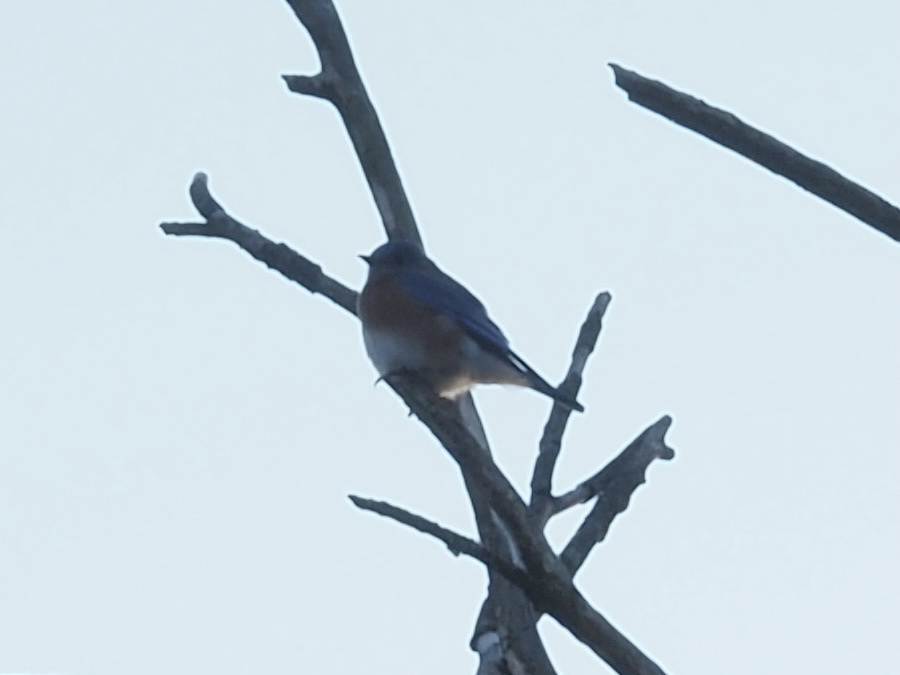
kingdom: Animalia
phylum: Chordata
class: Aves
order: Passeriformes
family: Turdidae
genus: Sialia
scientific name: Sialia sialis
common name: Eastern bluebird
